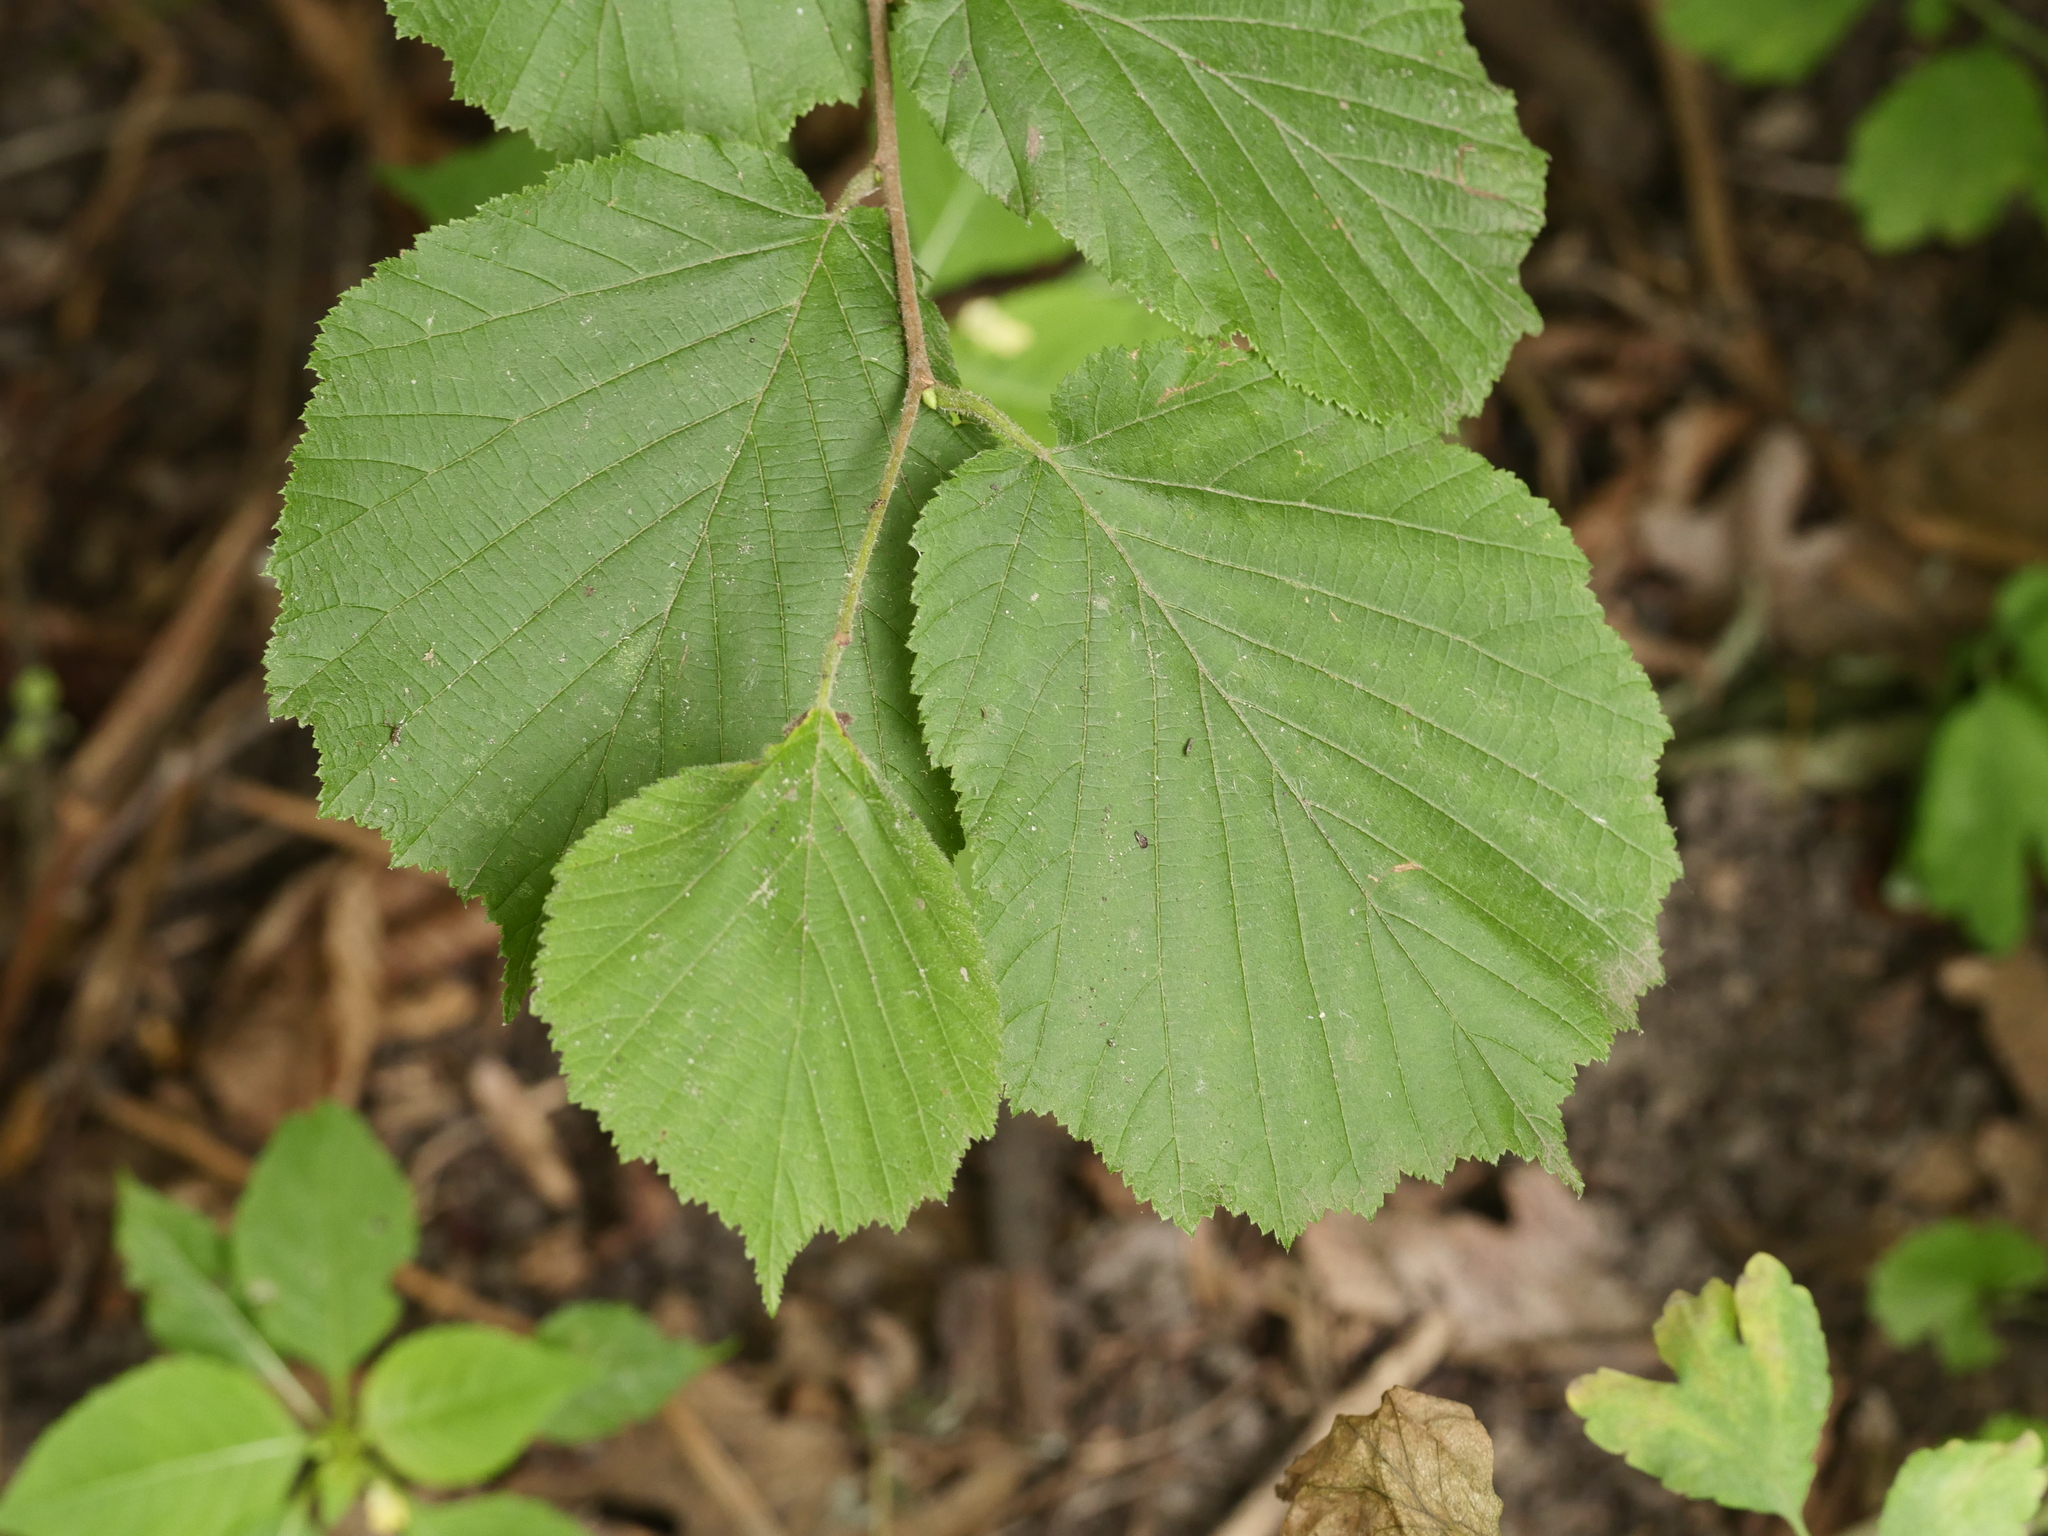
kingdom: Plantae
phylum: Tracheophyta
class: Magnoliopsida
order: Fagales
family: Betulaceae
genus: Corylus
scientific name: Corylus avellana
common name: European hazel
